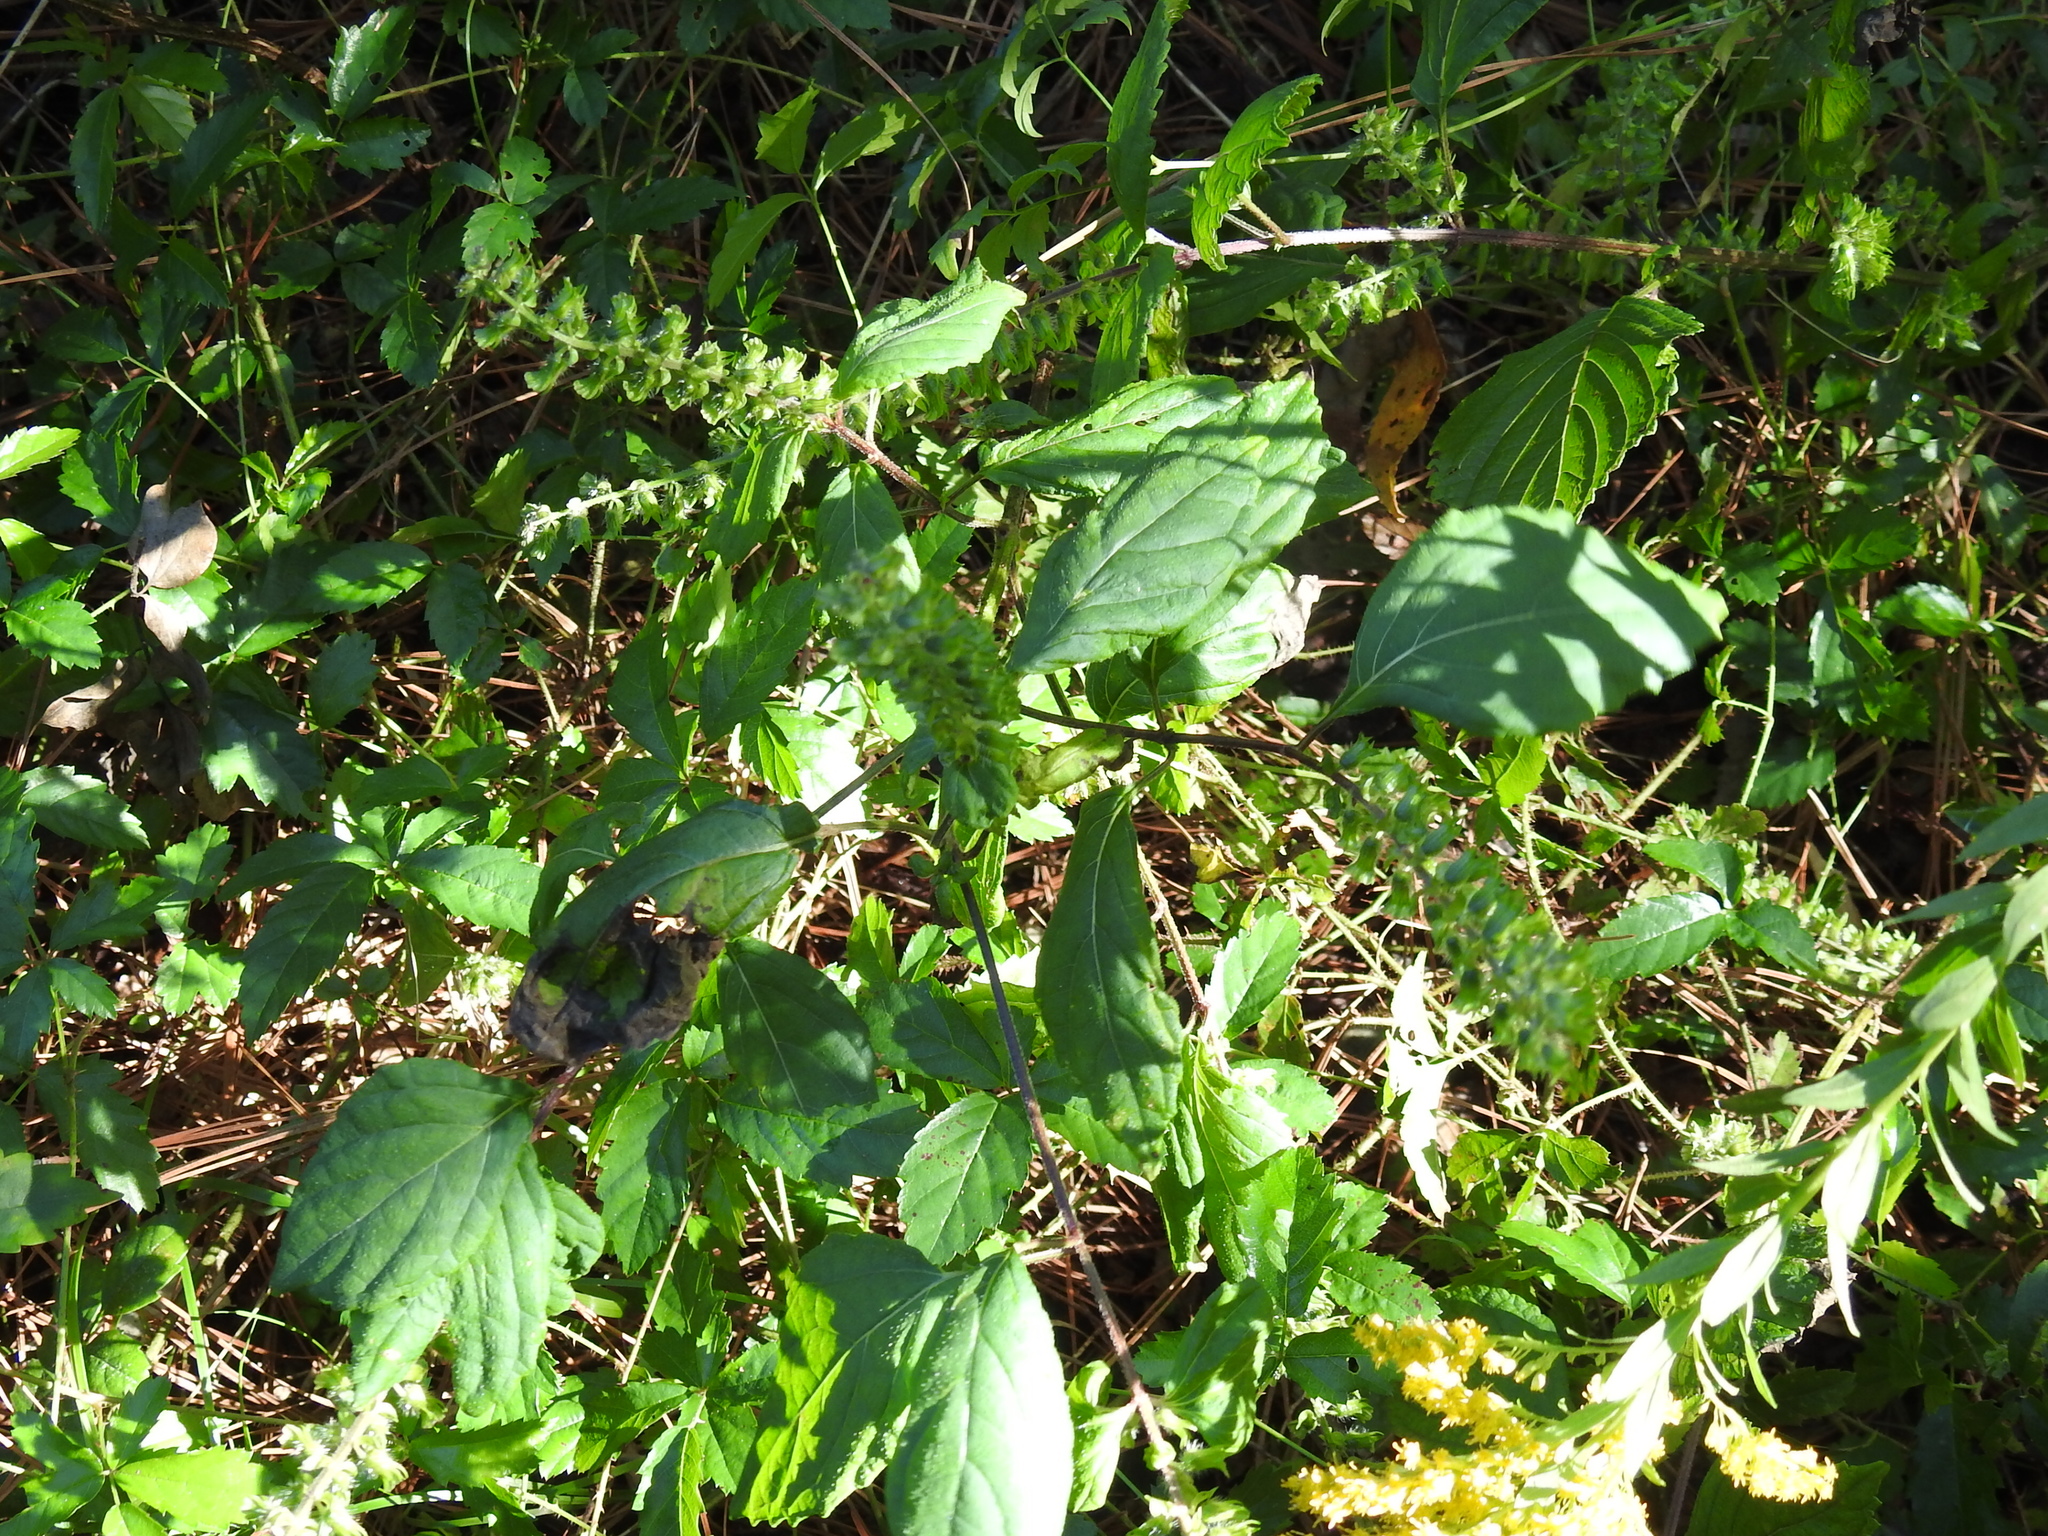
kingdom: Plantae
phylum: Tracheophyta
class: Magnoliopsida
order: Lamiales
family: Lamiaceae
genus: Perilla
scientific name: Perilla frutescens
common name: Perilla
